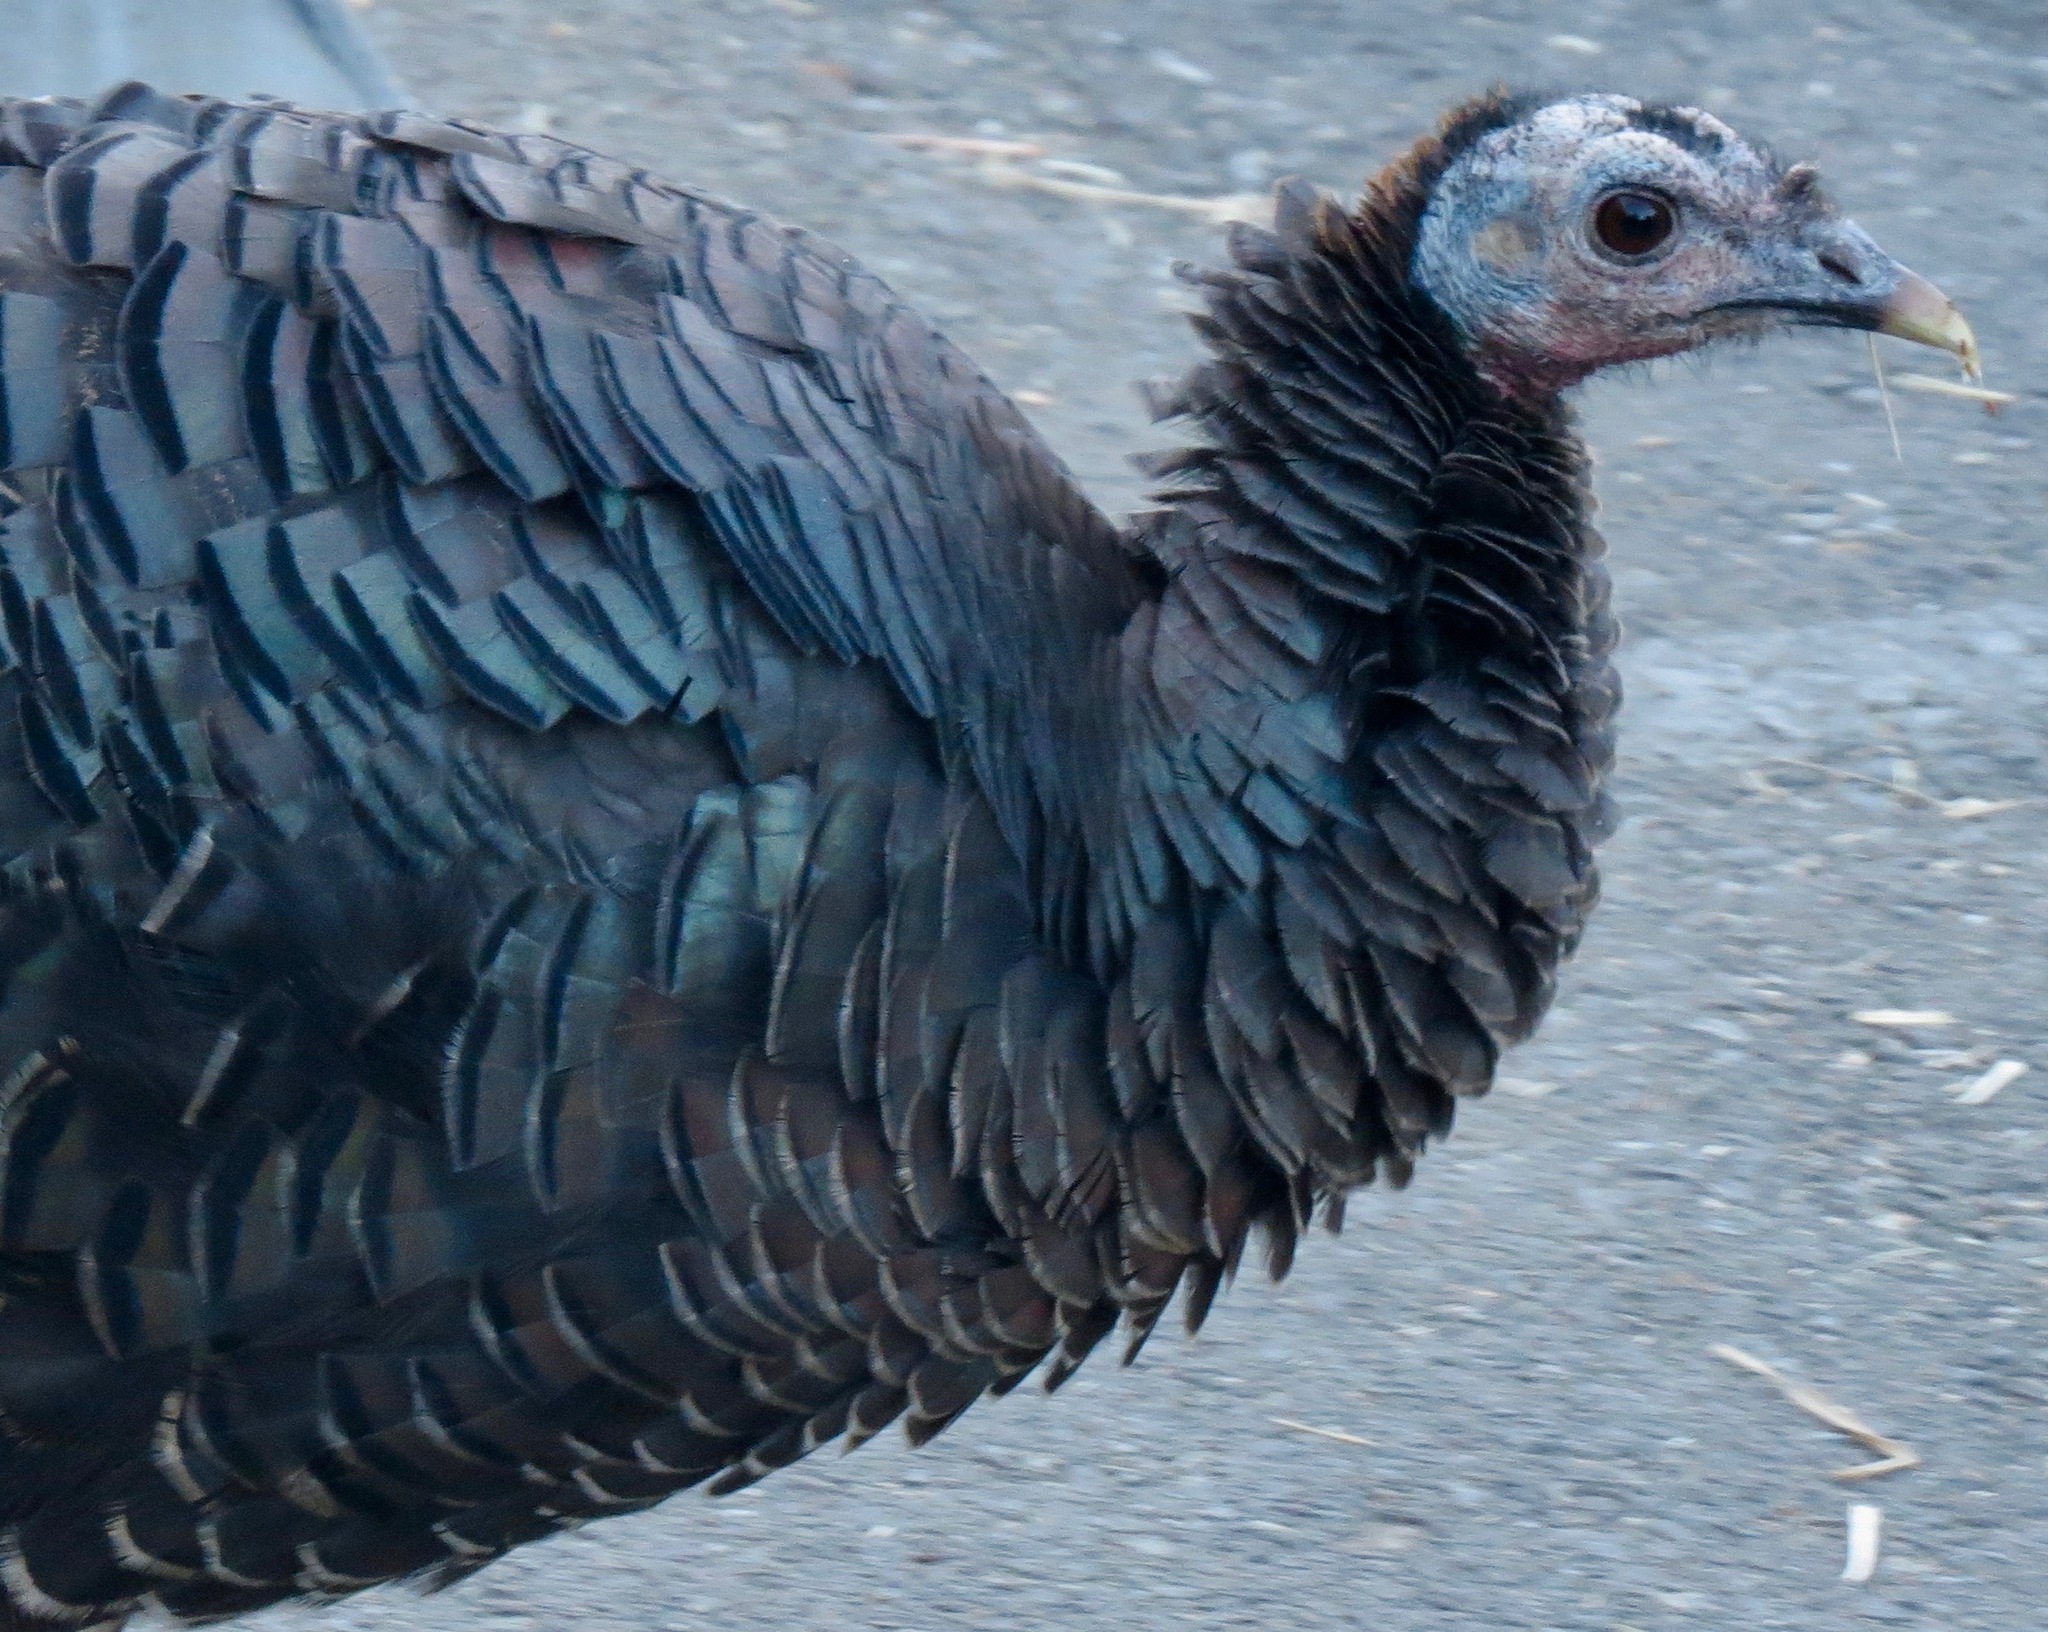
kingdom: Animalia
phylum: Chordata
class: Aves
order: Galliformes
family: Phasianidae
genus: Meleagris
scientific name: Meleagris gallopavo
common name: Wild turkey
